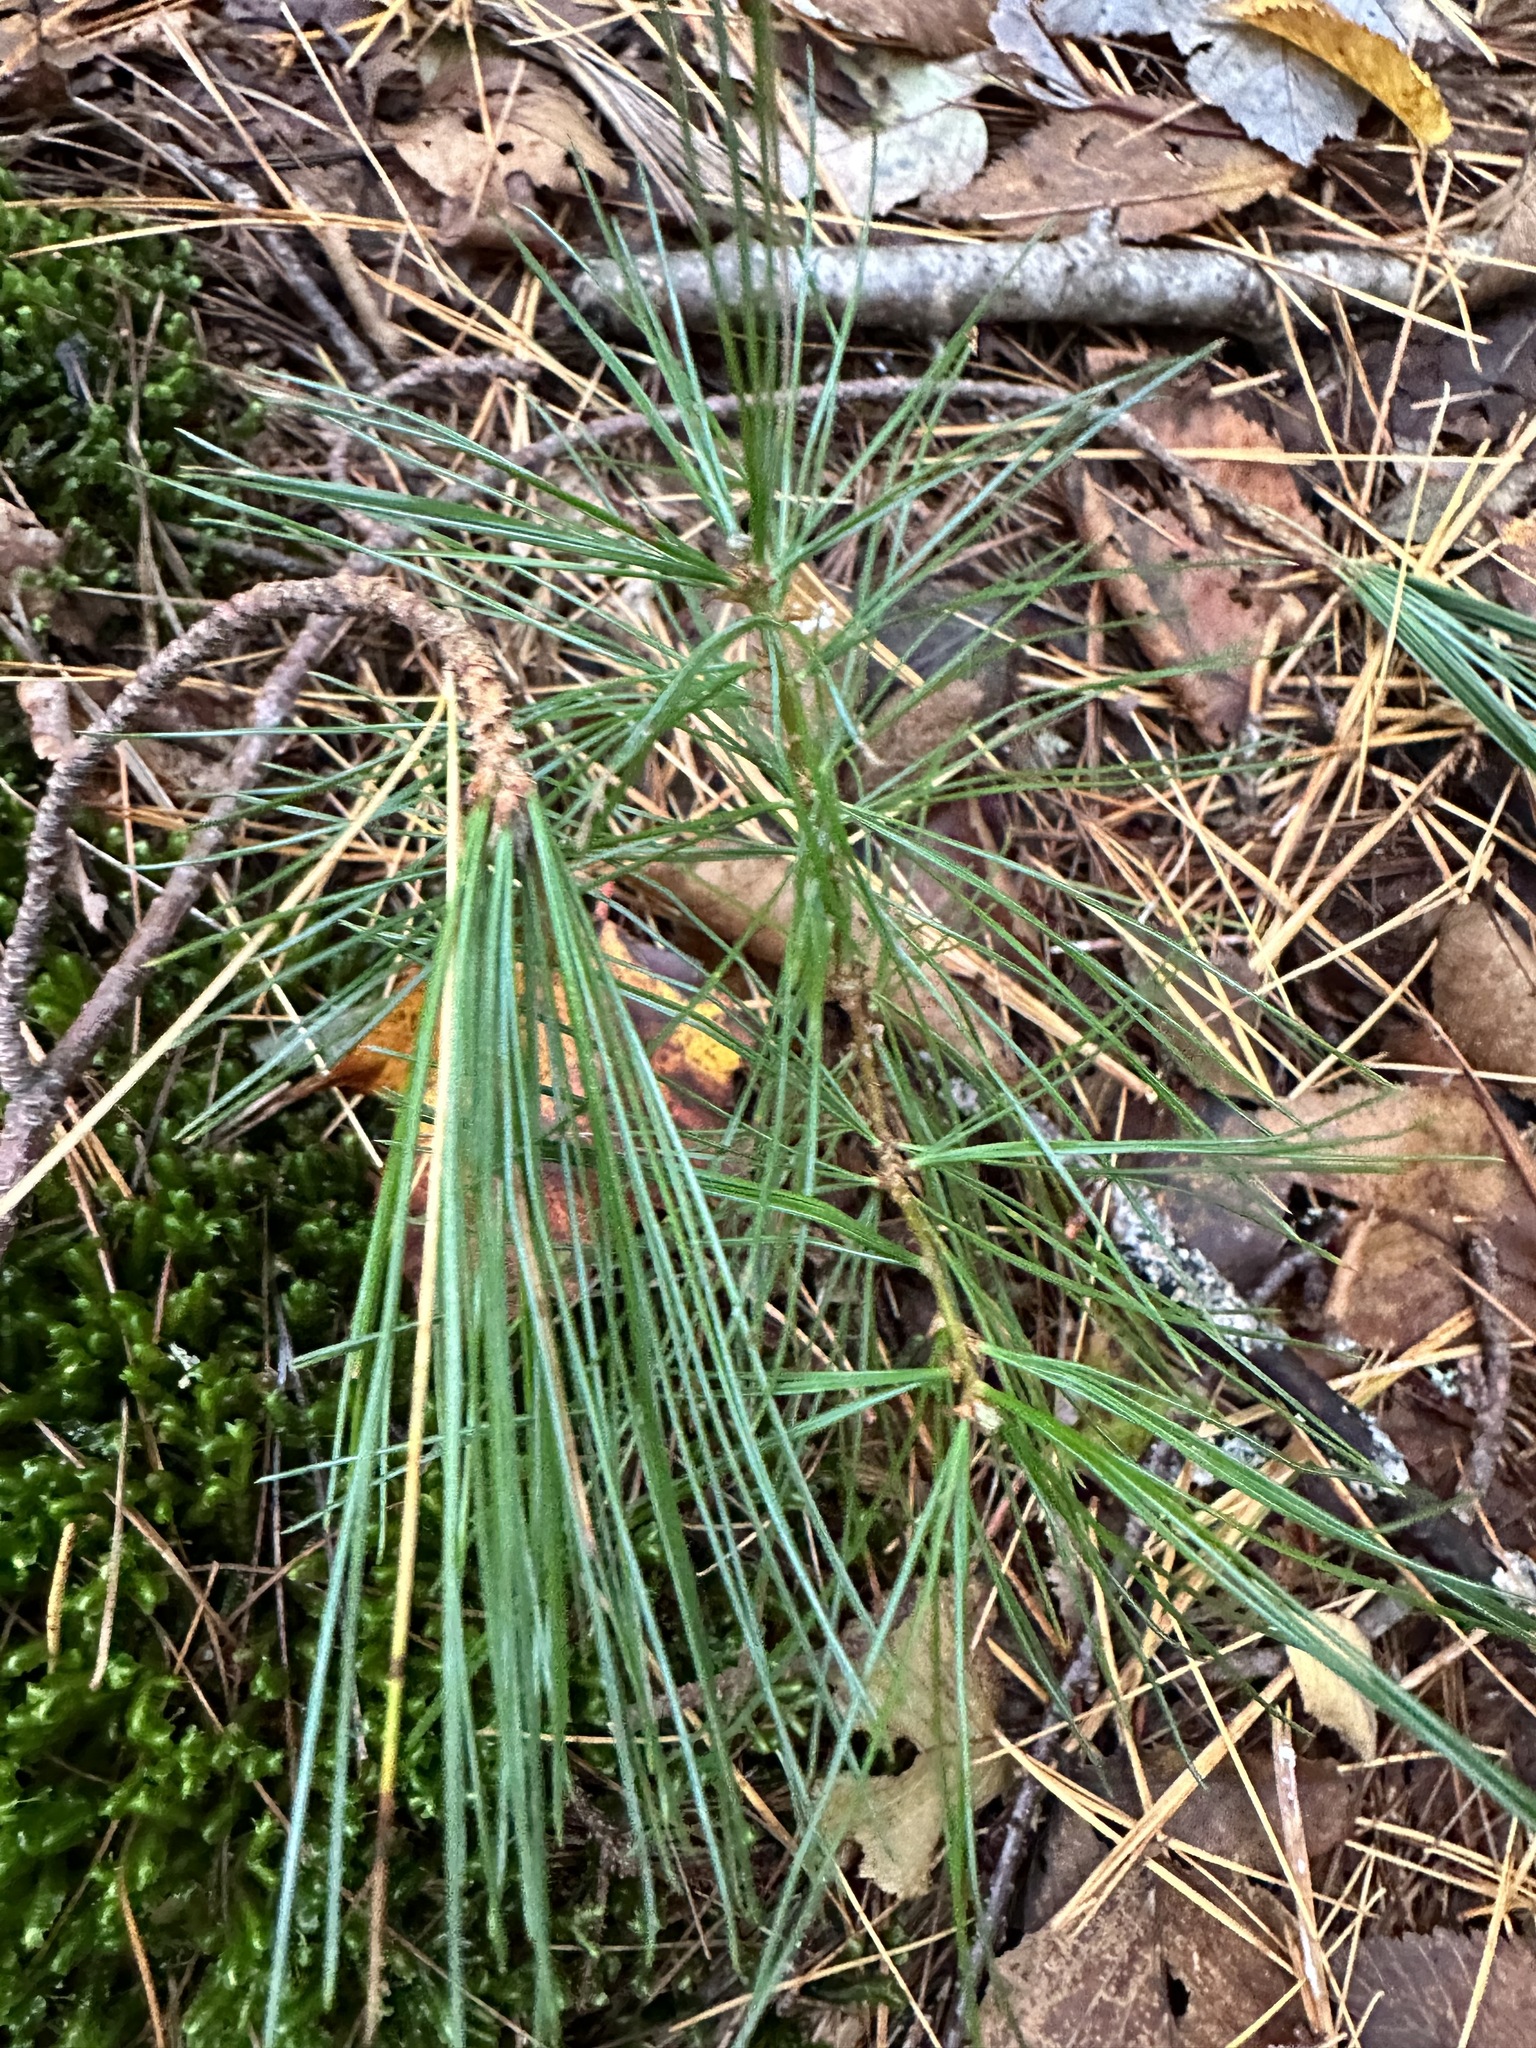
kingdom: Plantae
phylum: Tracheophyta
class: Pinopsida
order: Pinales
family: Pinaceae
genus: Pinus
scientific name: Pinus strobus
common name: Weymouth pine
